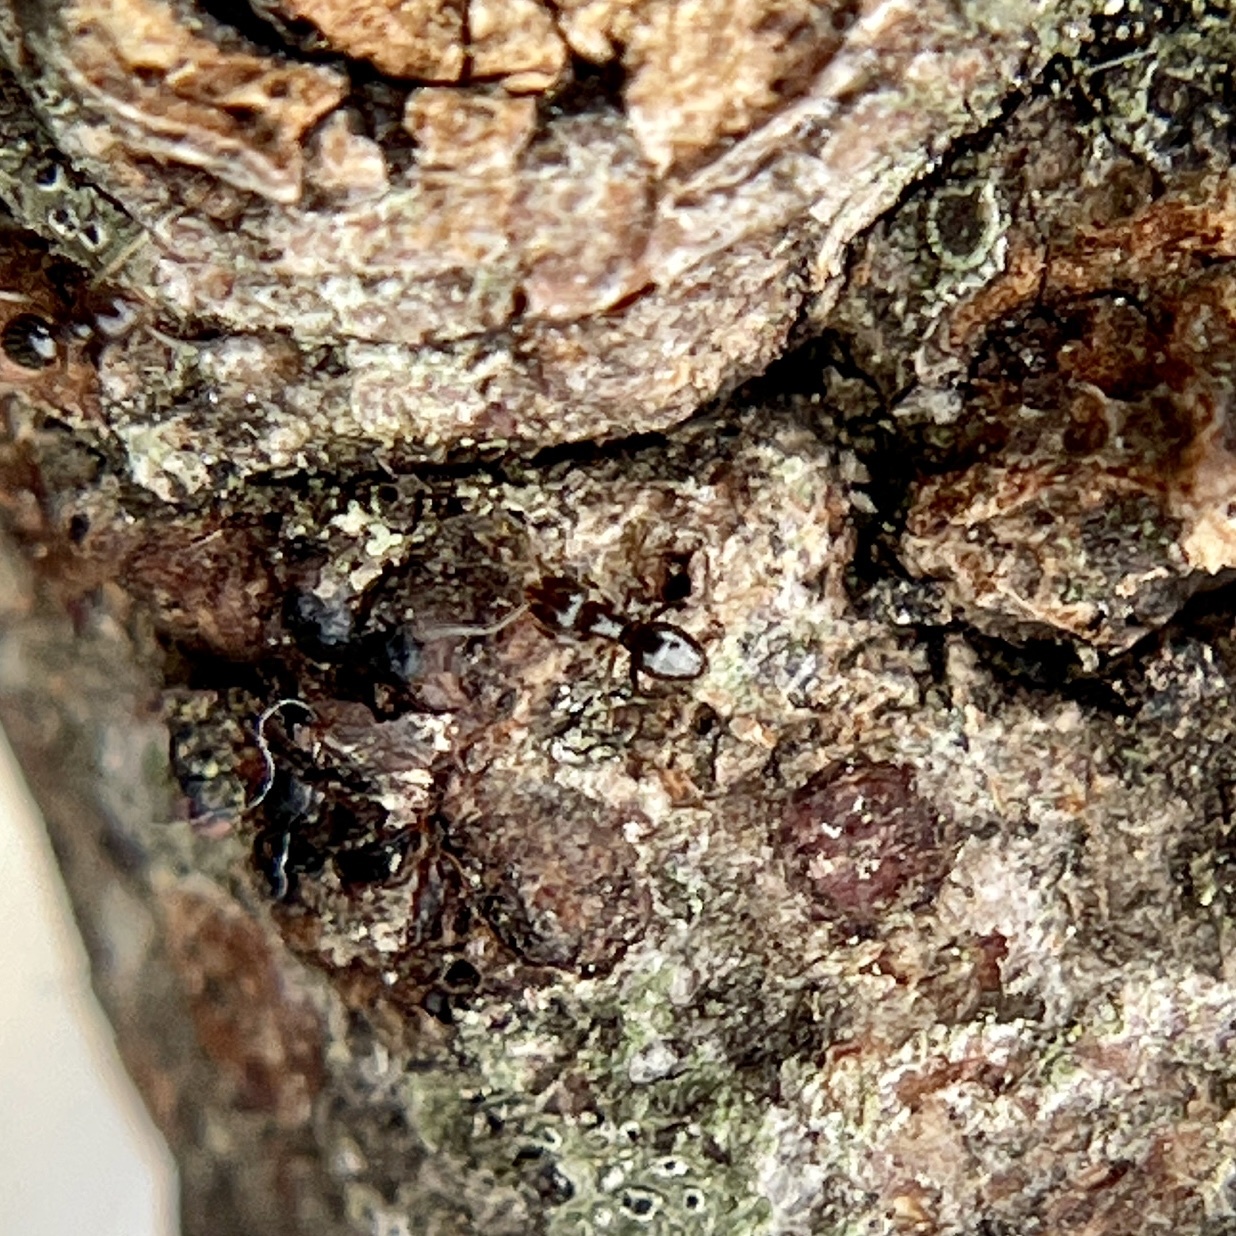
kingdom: Animalia
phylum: Arthropoda
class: Insecta
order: Hymenoptera
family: Formicidae
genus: Brachymyrmex
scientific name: Brachymyrmex patagonicus
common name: Dark rover ant
